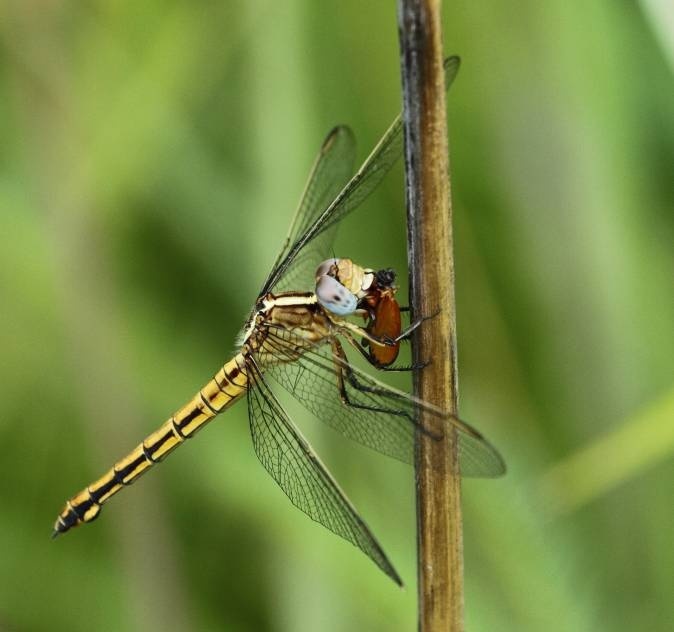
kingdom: Animalia
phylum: Arthropoda
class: Insecta
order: Odonata
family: Libellulidae
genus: Nesciothemis
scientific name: Nesciothemis farinosa
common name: Eastern blacktail
